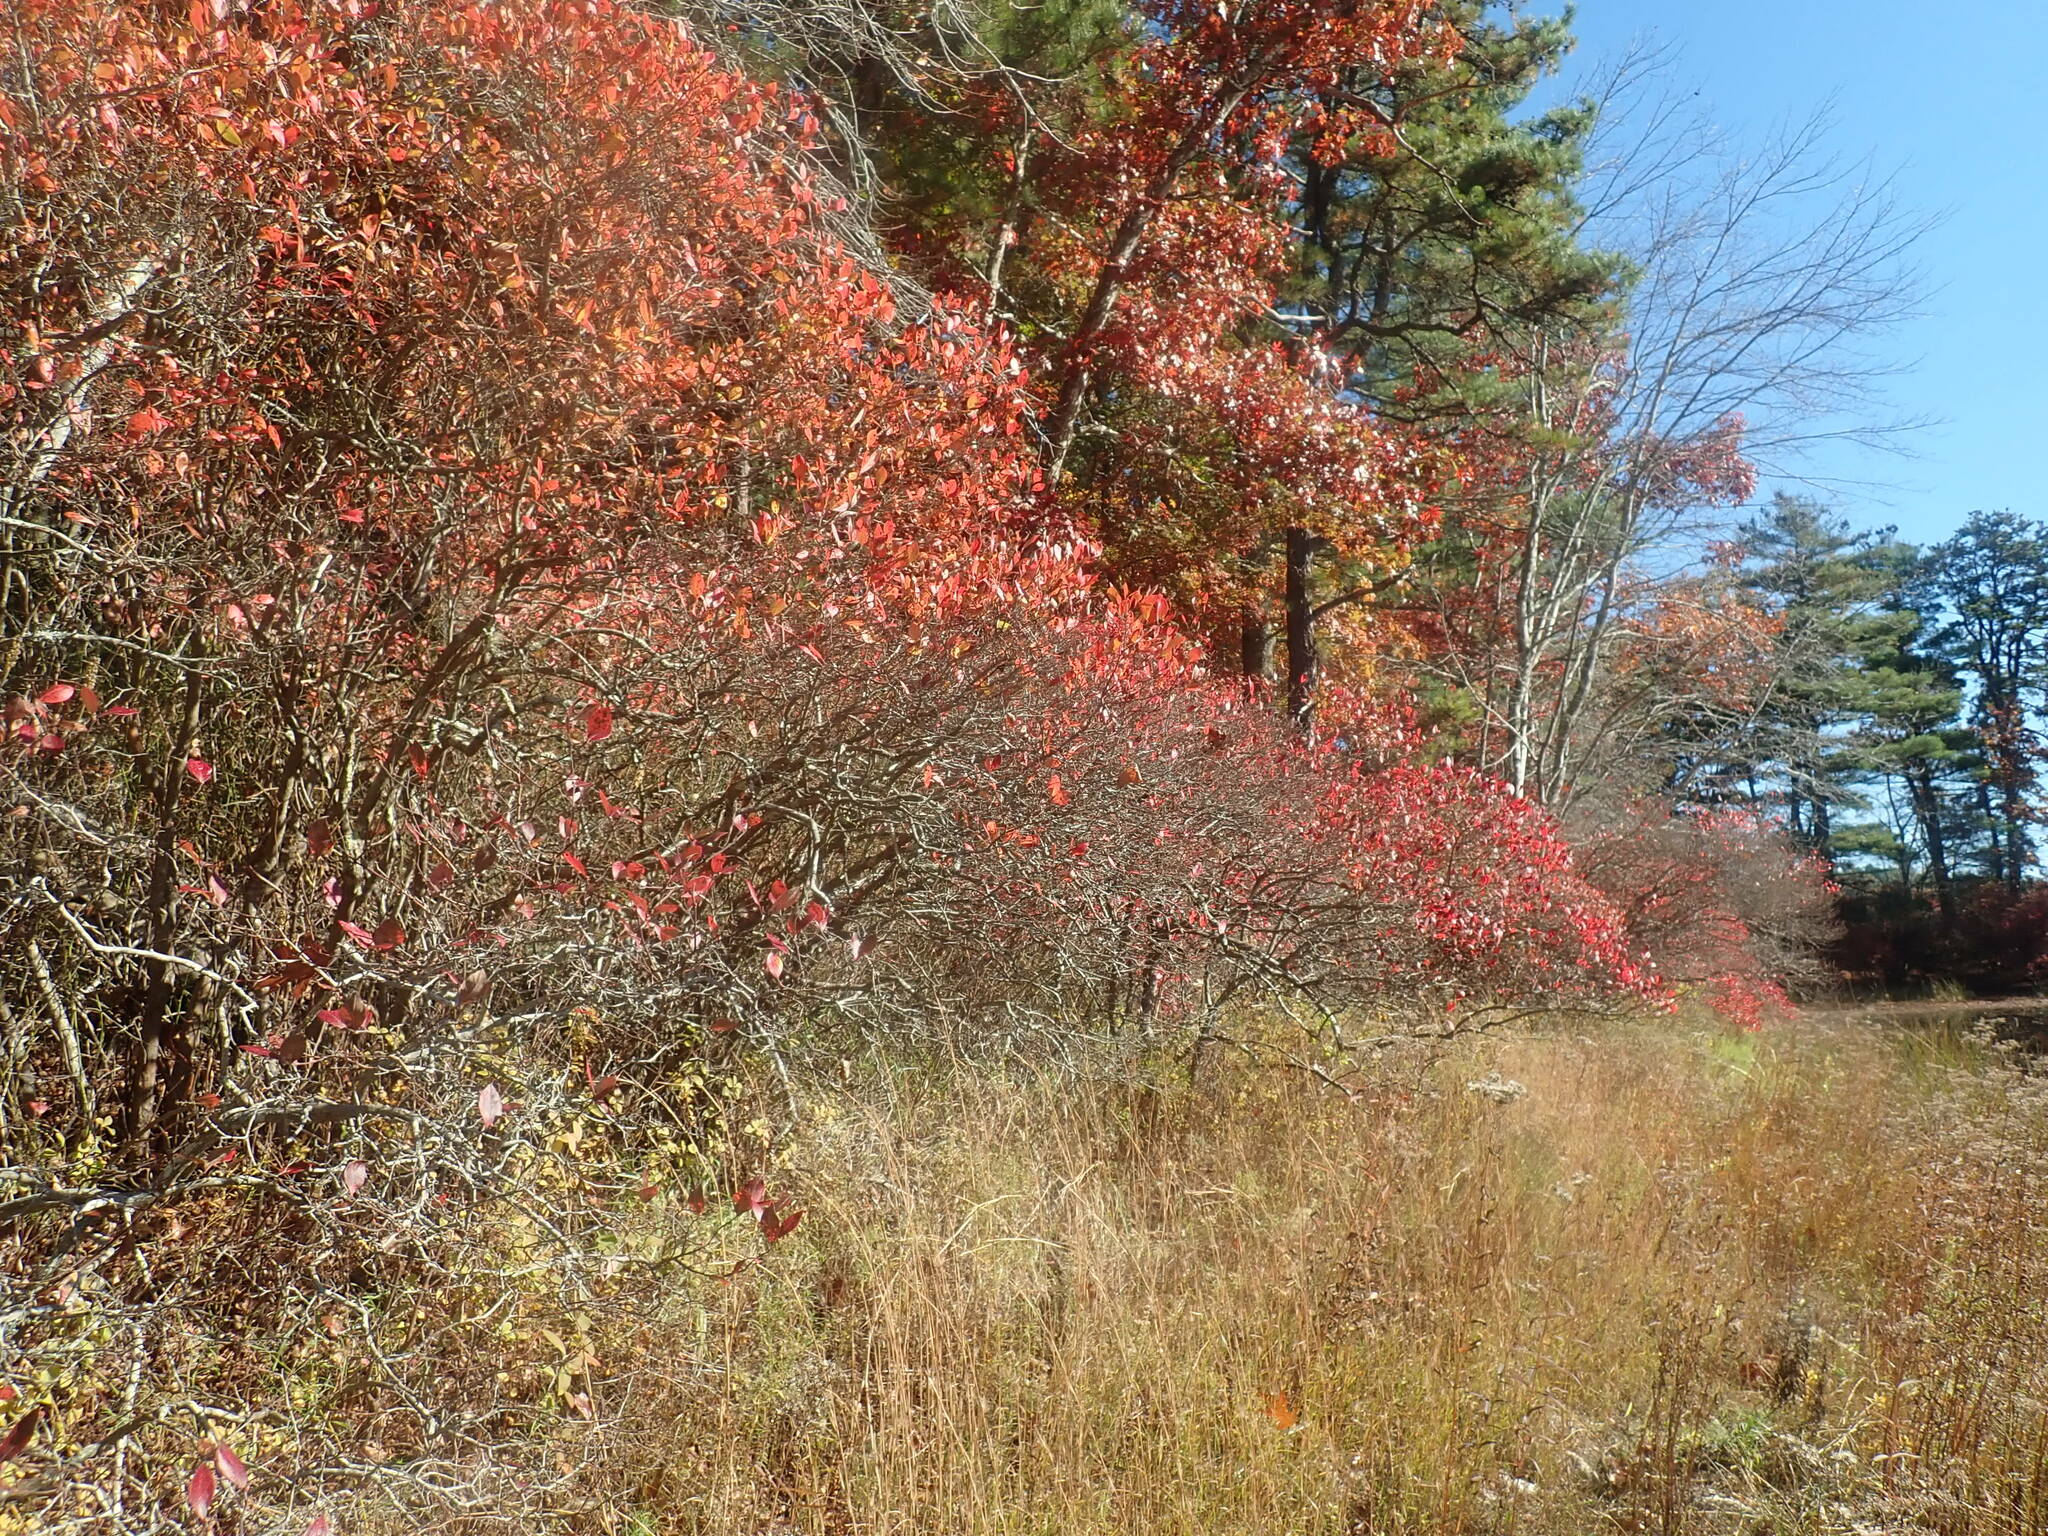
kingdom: Plantae
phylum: Tracheophyta
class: Magnoliopsida
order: Ericales
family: Ericaceae
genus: Vaccinium
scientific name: Vaccinium corymbosum
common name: Blueberry
